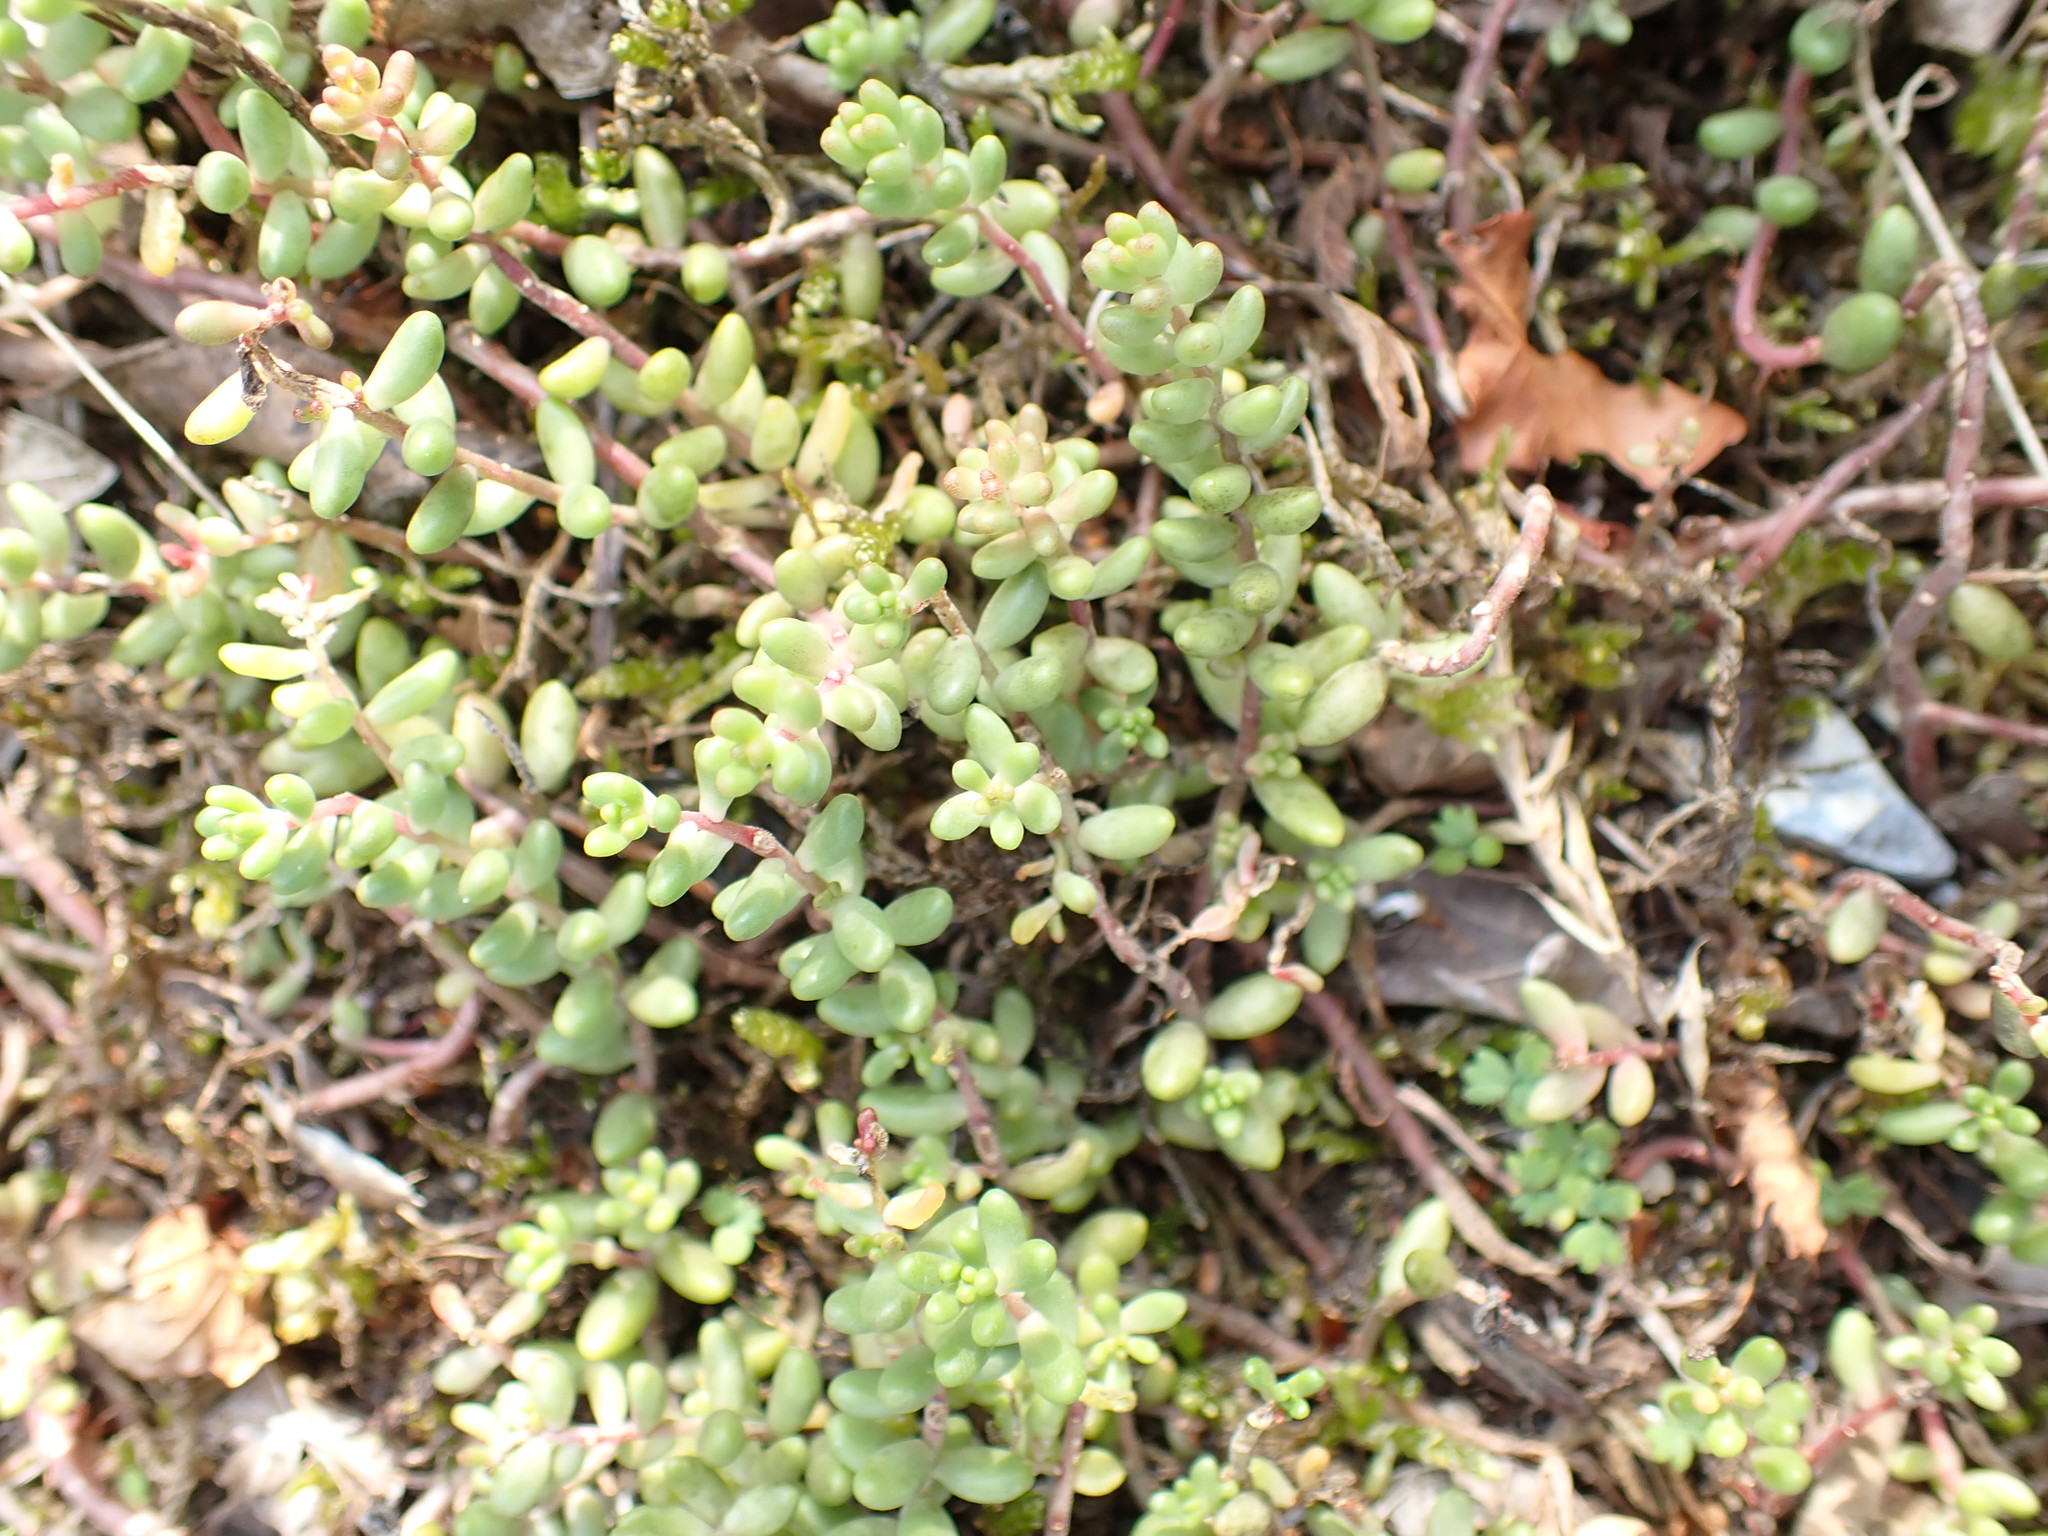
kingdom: Plantae
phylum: Tracheophyta
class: Magnoliopsida
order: Saxifragales
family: Crassulaceae
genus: Sedum
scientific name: Sedum album
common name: White stonecrop
